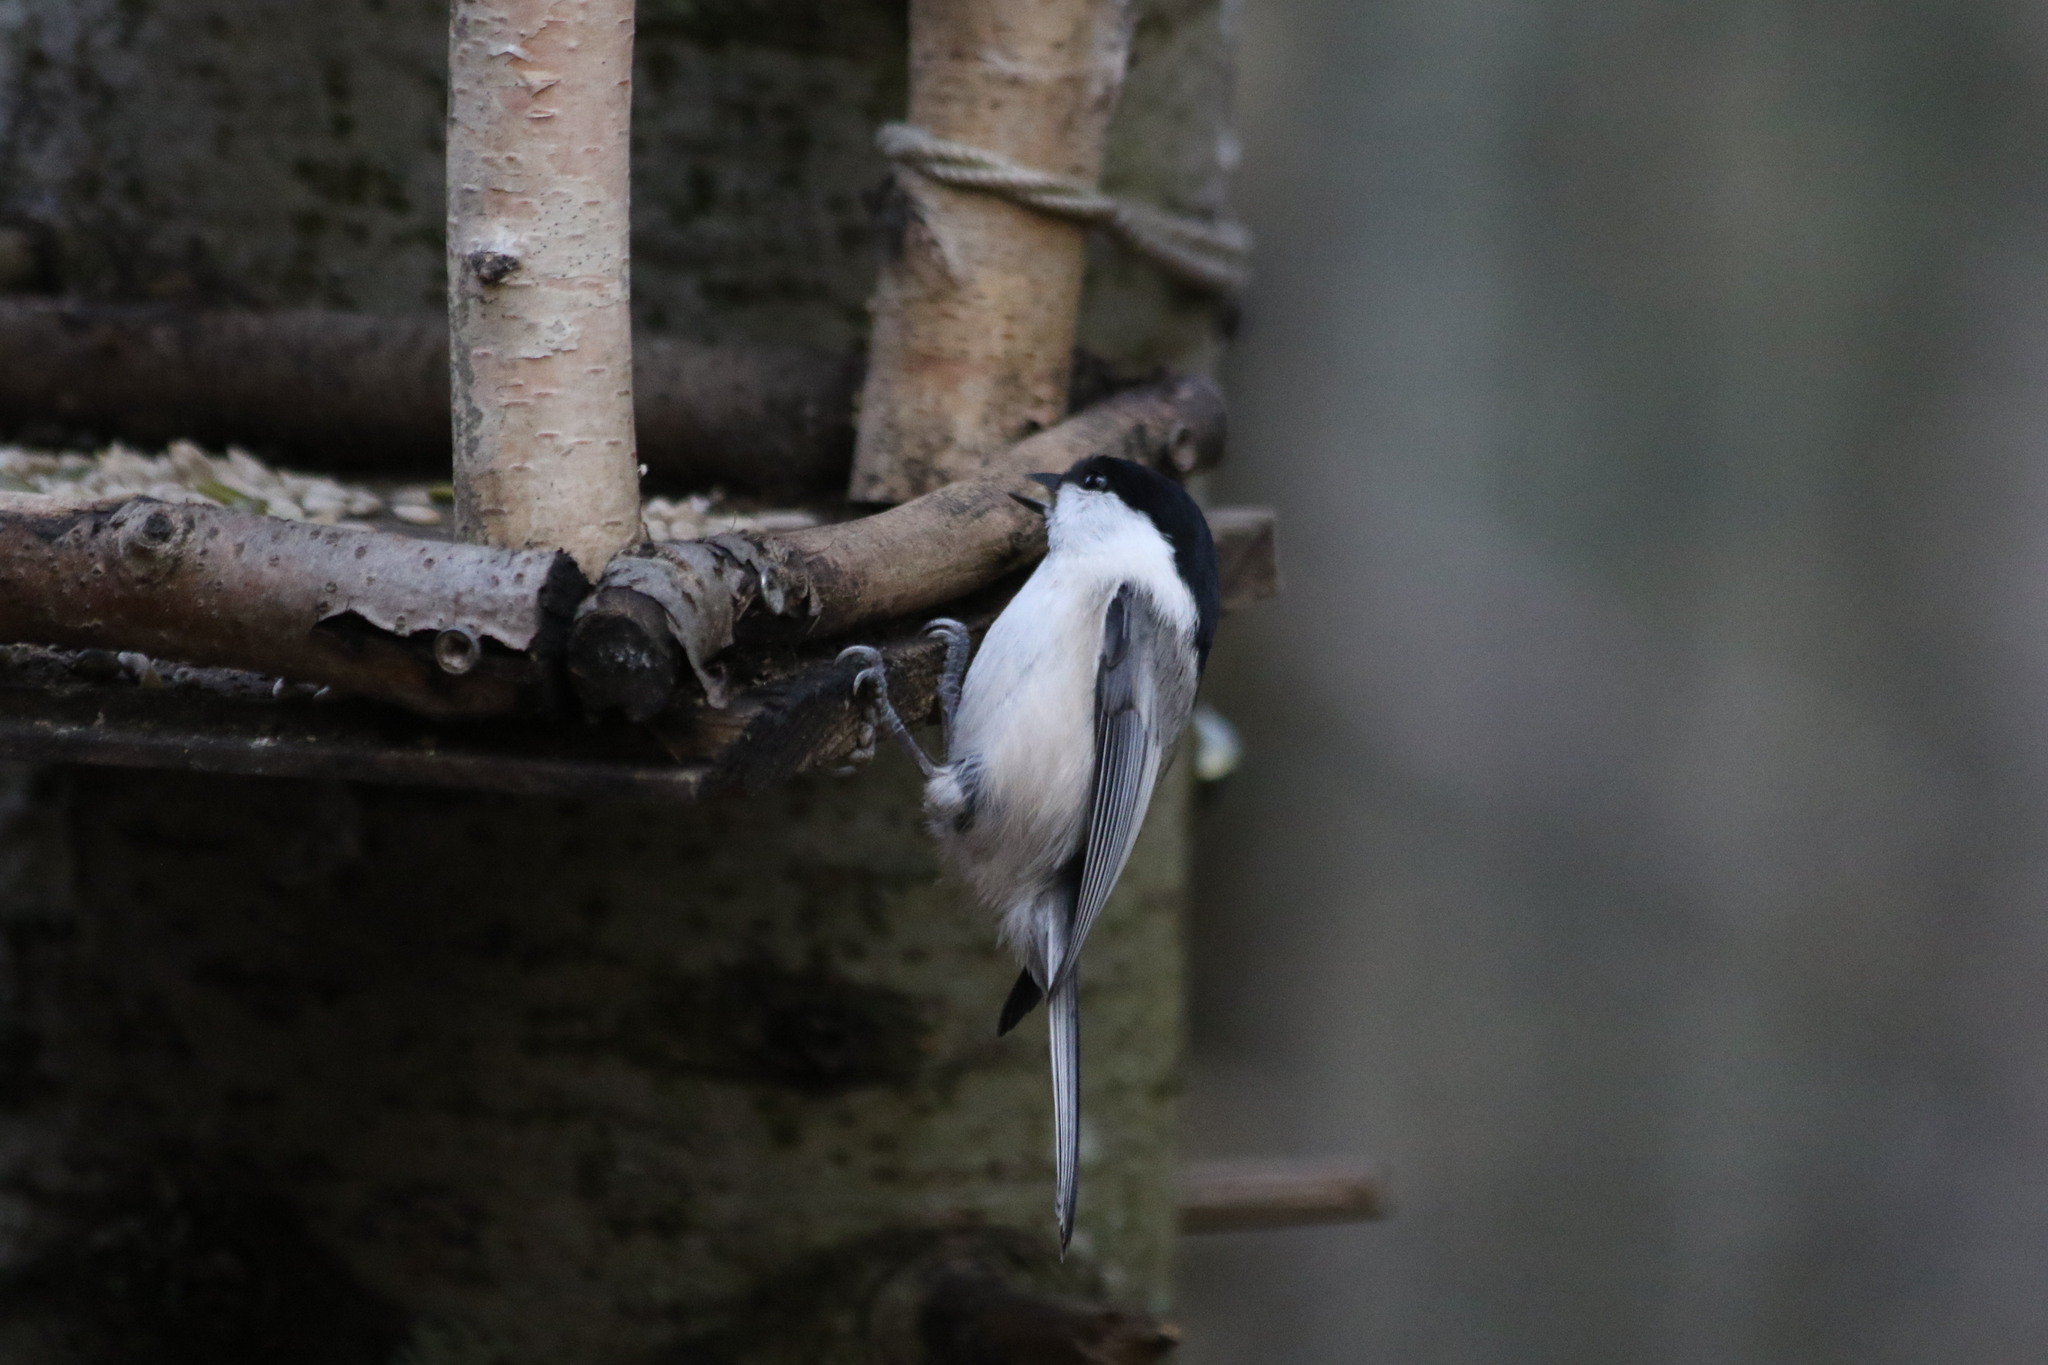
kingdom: Animalia
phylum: Chordata
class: Aves
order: Passeriformes
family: Paridae
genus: Poecile
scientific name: Poecile montanus
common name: Willow tit
